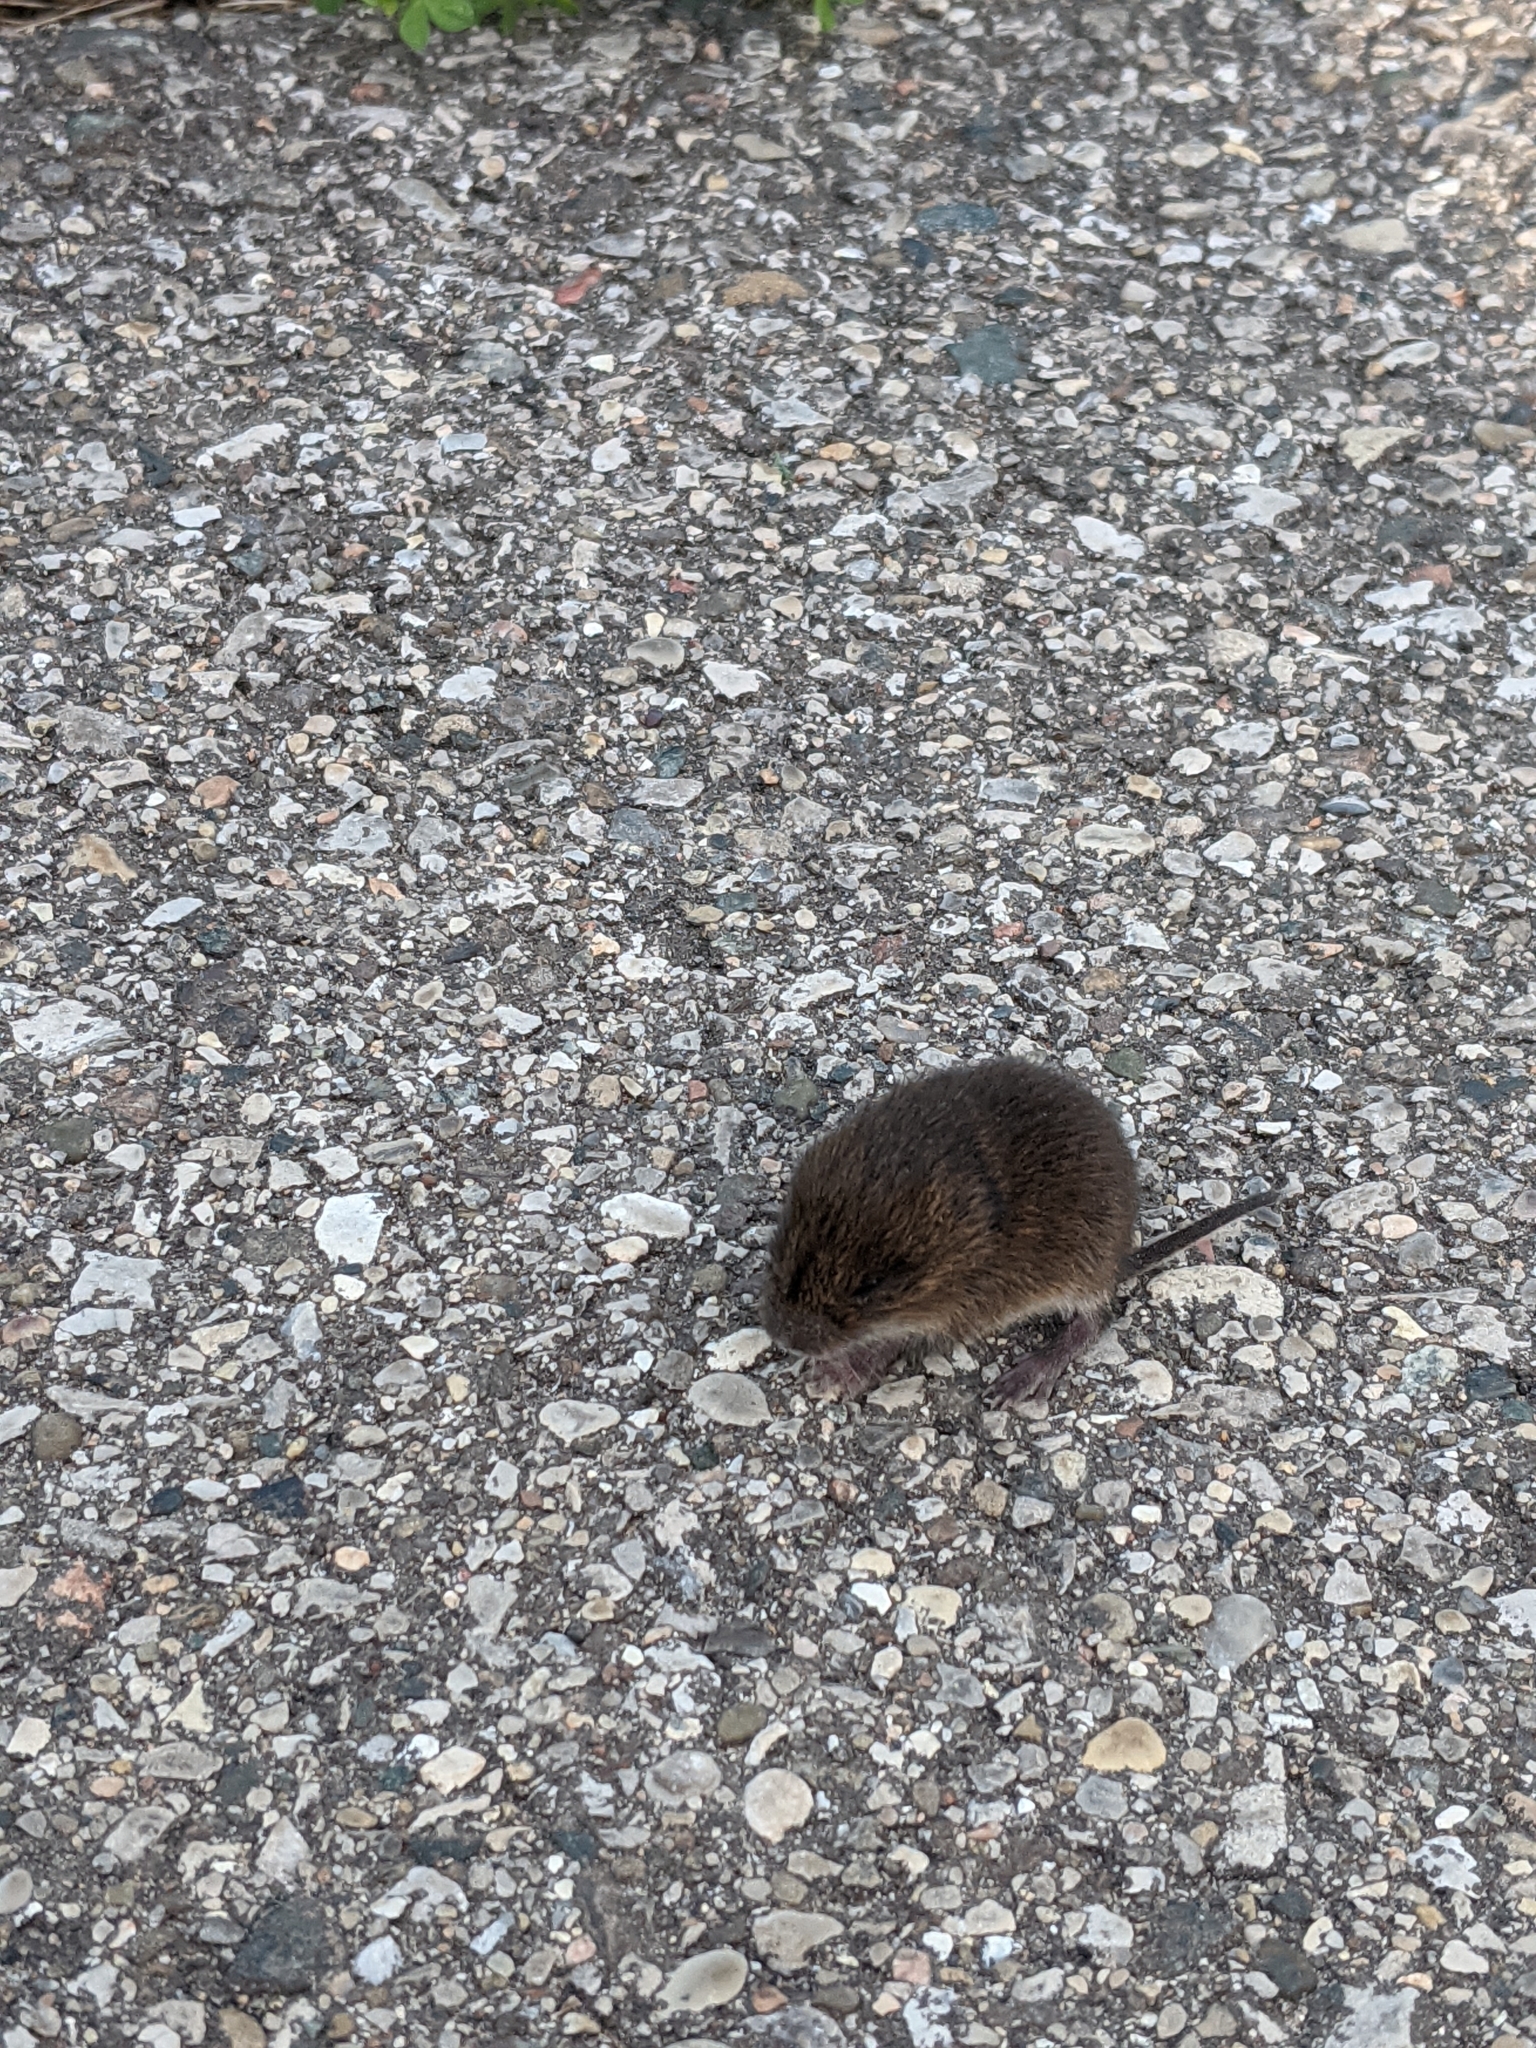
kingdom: Animalia
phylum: Chordata
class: Mammalia
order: Rodentia
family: Cricetidae
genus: Microtus
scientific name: Microtus pennsylvanicus
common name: Meadow vole
